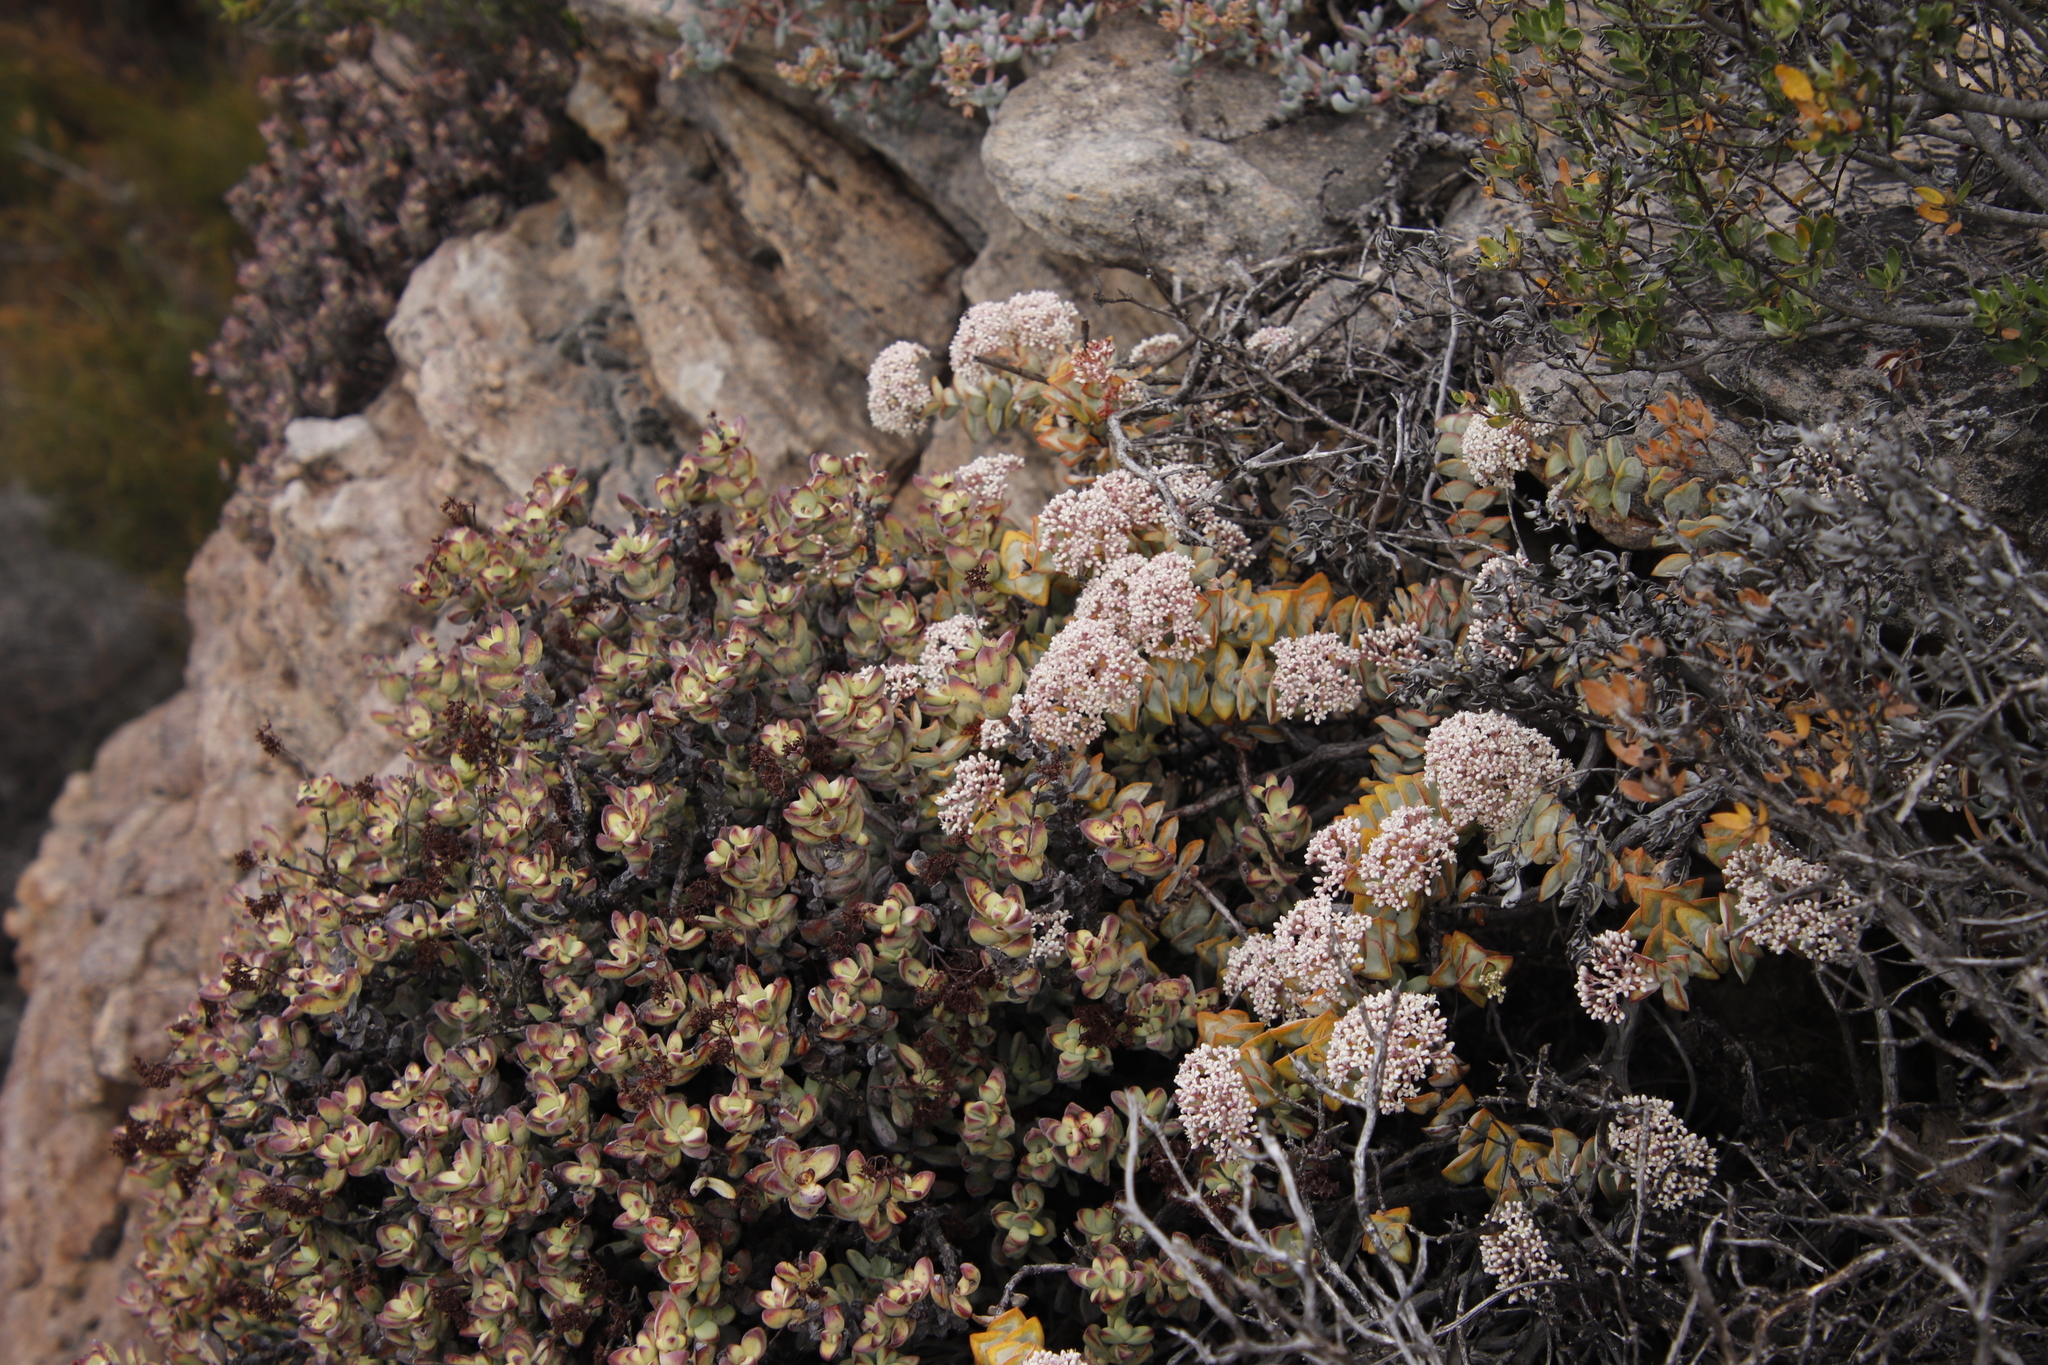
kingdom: Plantae
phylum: Tracheophyta
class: Magnoliopsida
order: Saxifragales
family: Crassulaceae
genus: Crassula
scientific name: Crassula rupestris
